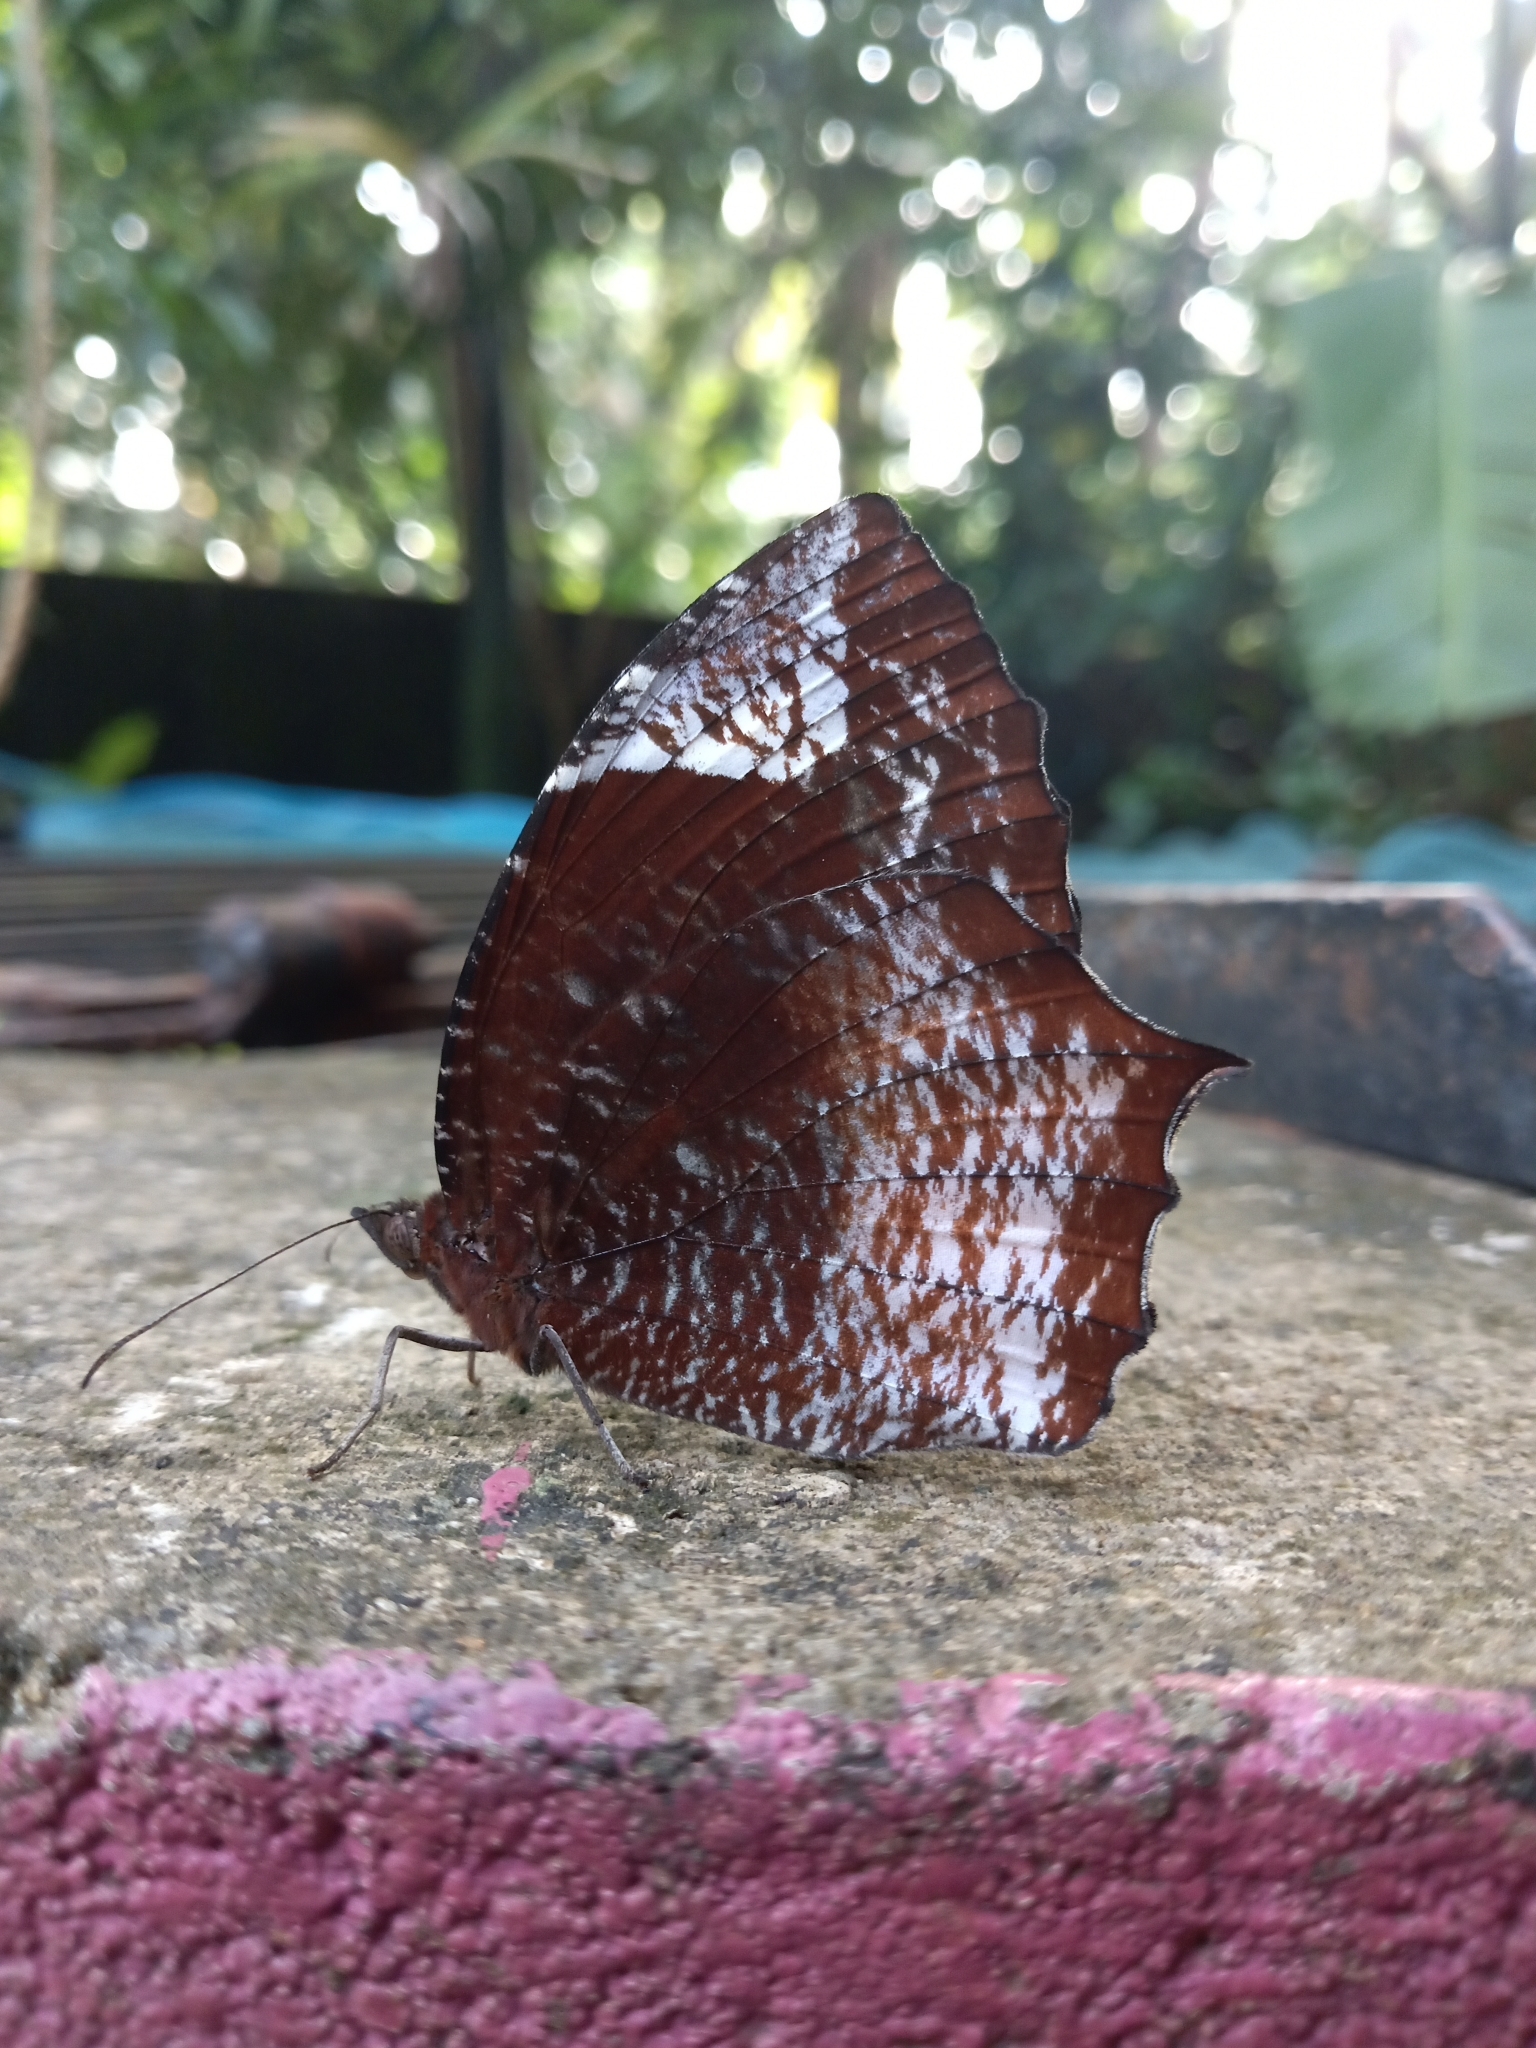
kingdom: Animalia
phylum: Arthropoda
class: Insecta
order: Lepidoptera
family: Nymphalidae
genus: Elymnias
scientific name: Elymnias caudata
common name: Tailed palmfly
